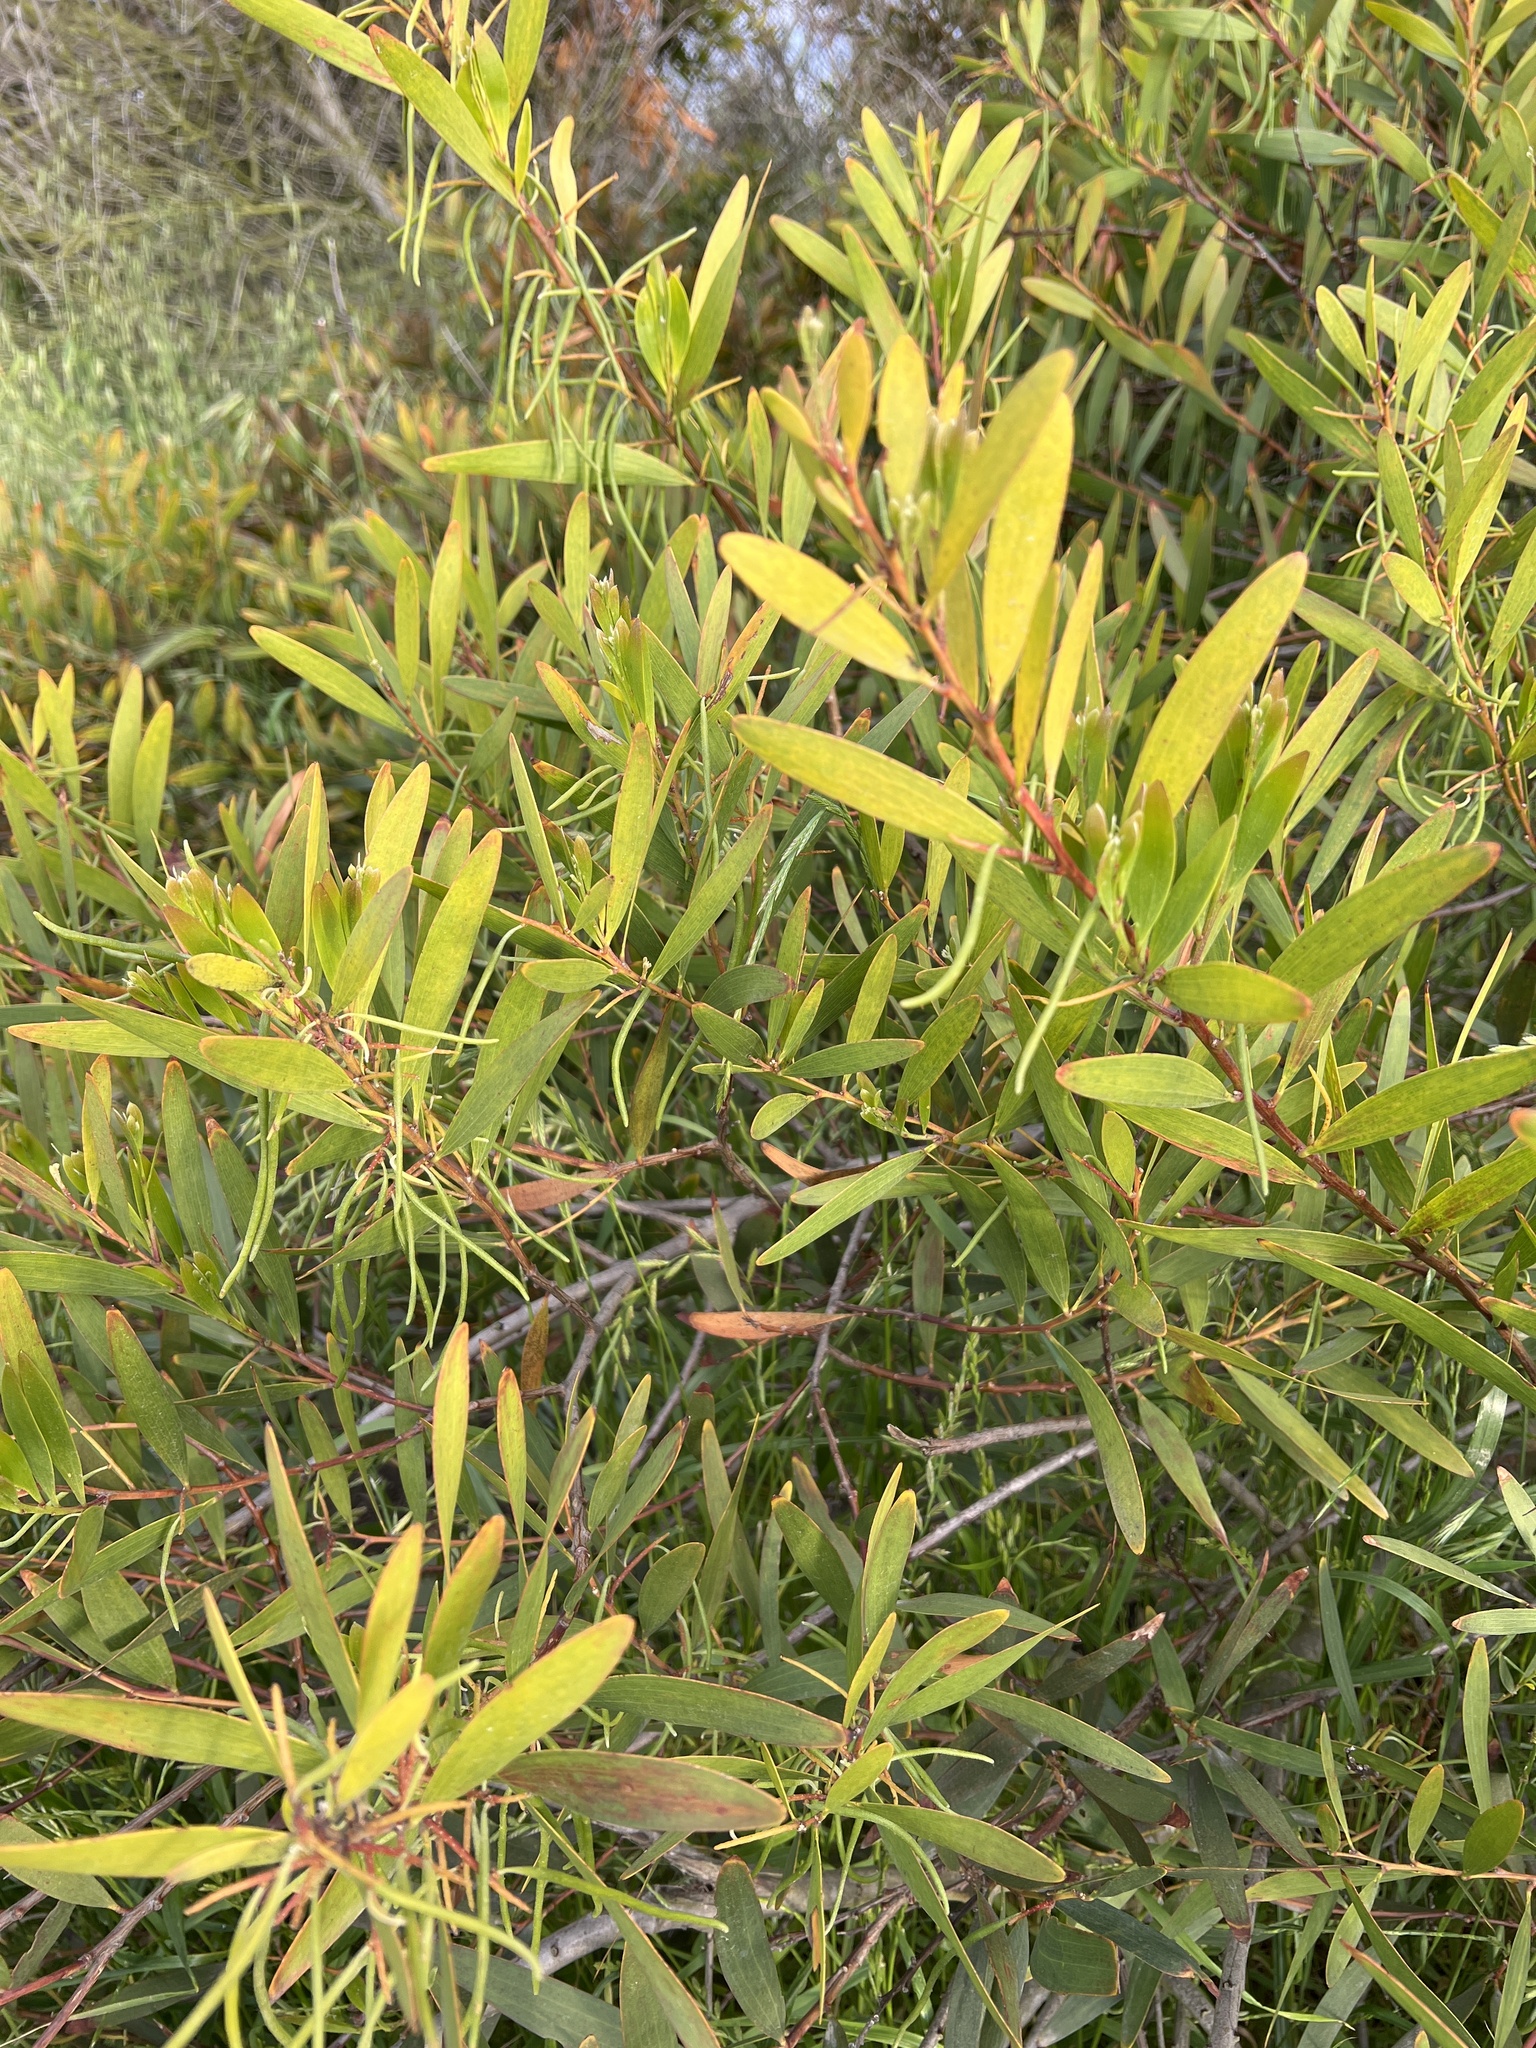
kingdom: Plantae
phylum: Tracheophyta
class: Magnoliopsida
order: Fabales
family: Fabaceae
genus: Acacia
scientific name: Acacia longifolia
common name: Sydney golden wattle
